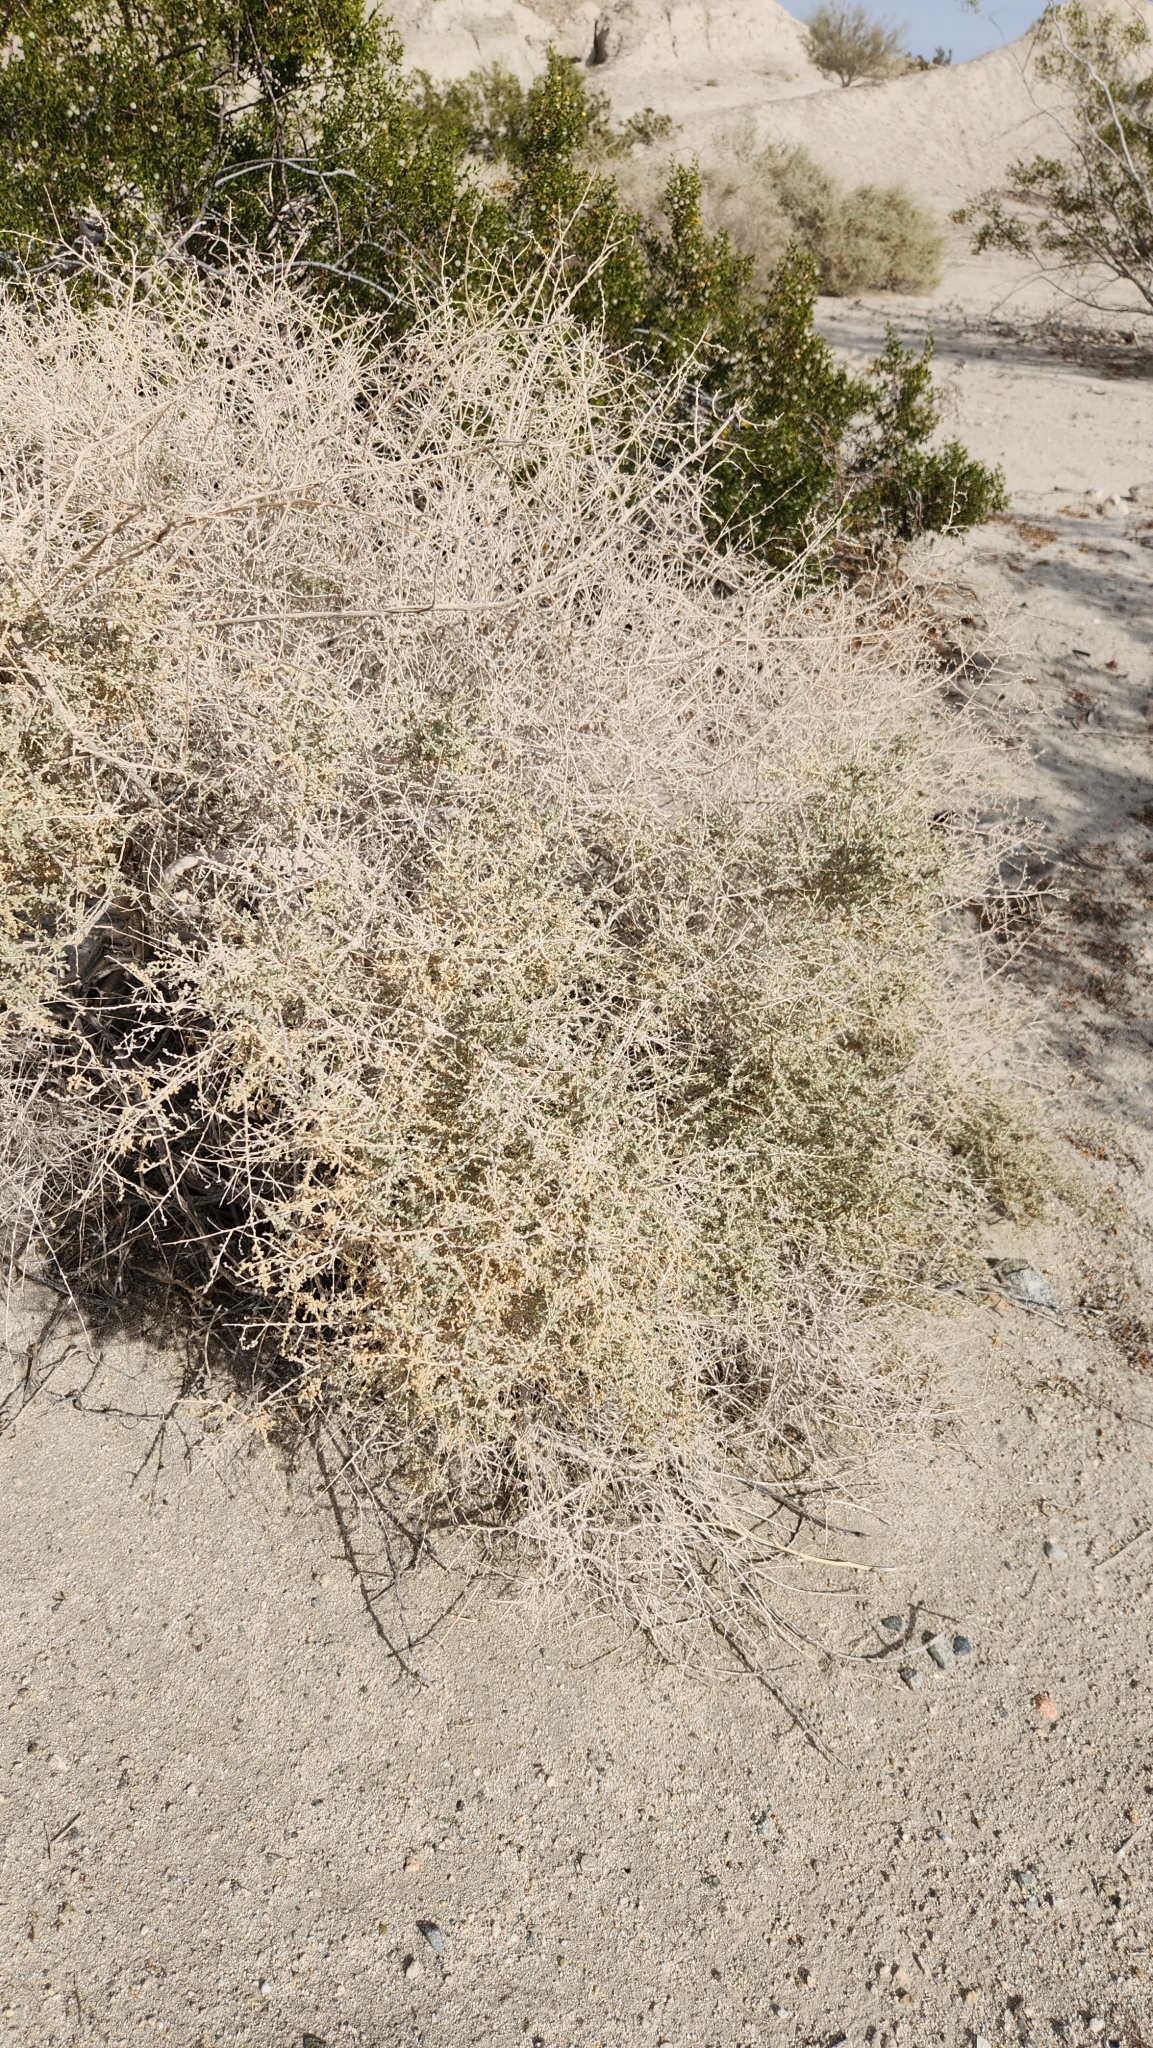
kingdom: Plantae
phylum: Tracheophyta
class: Magnoliopsida
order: Caryophyllales
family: Amaranthaceae
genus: Atriplex
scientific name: Atriplex polycarpa
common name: Desert saltbush
